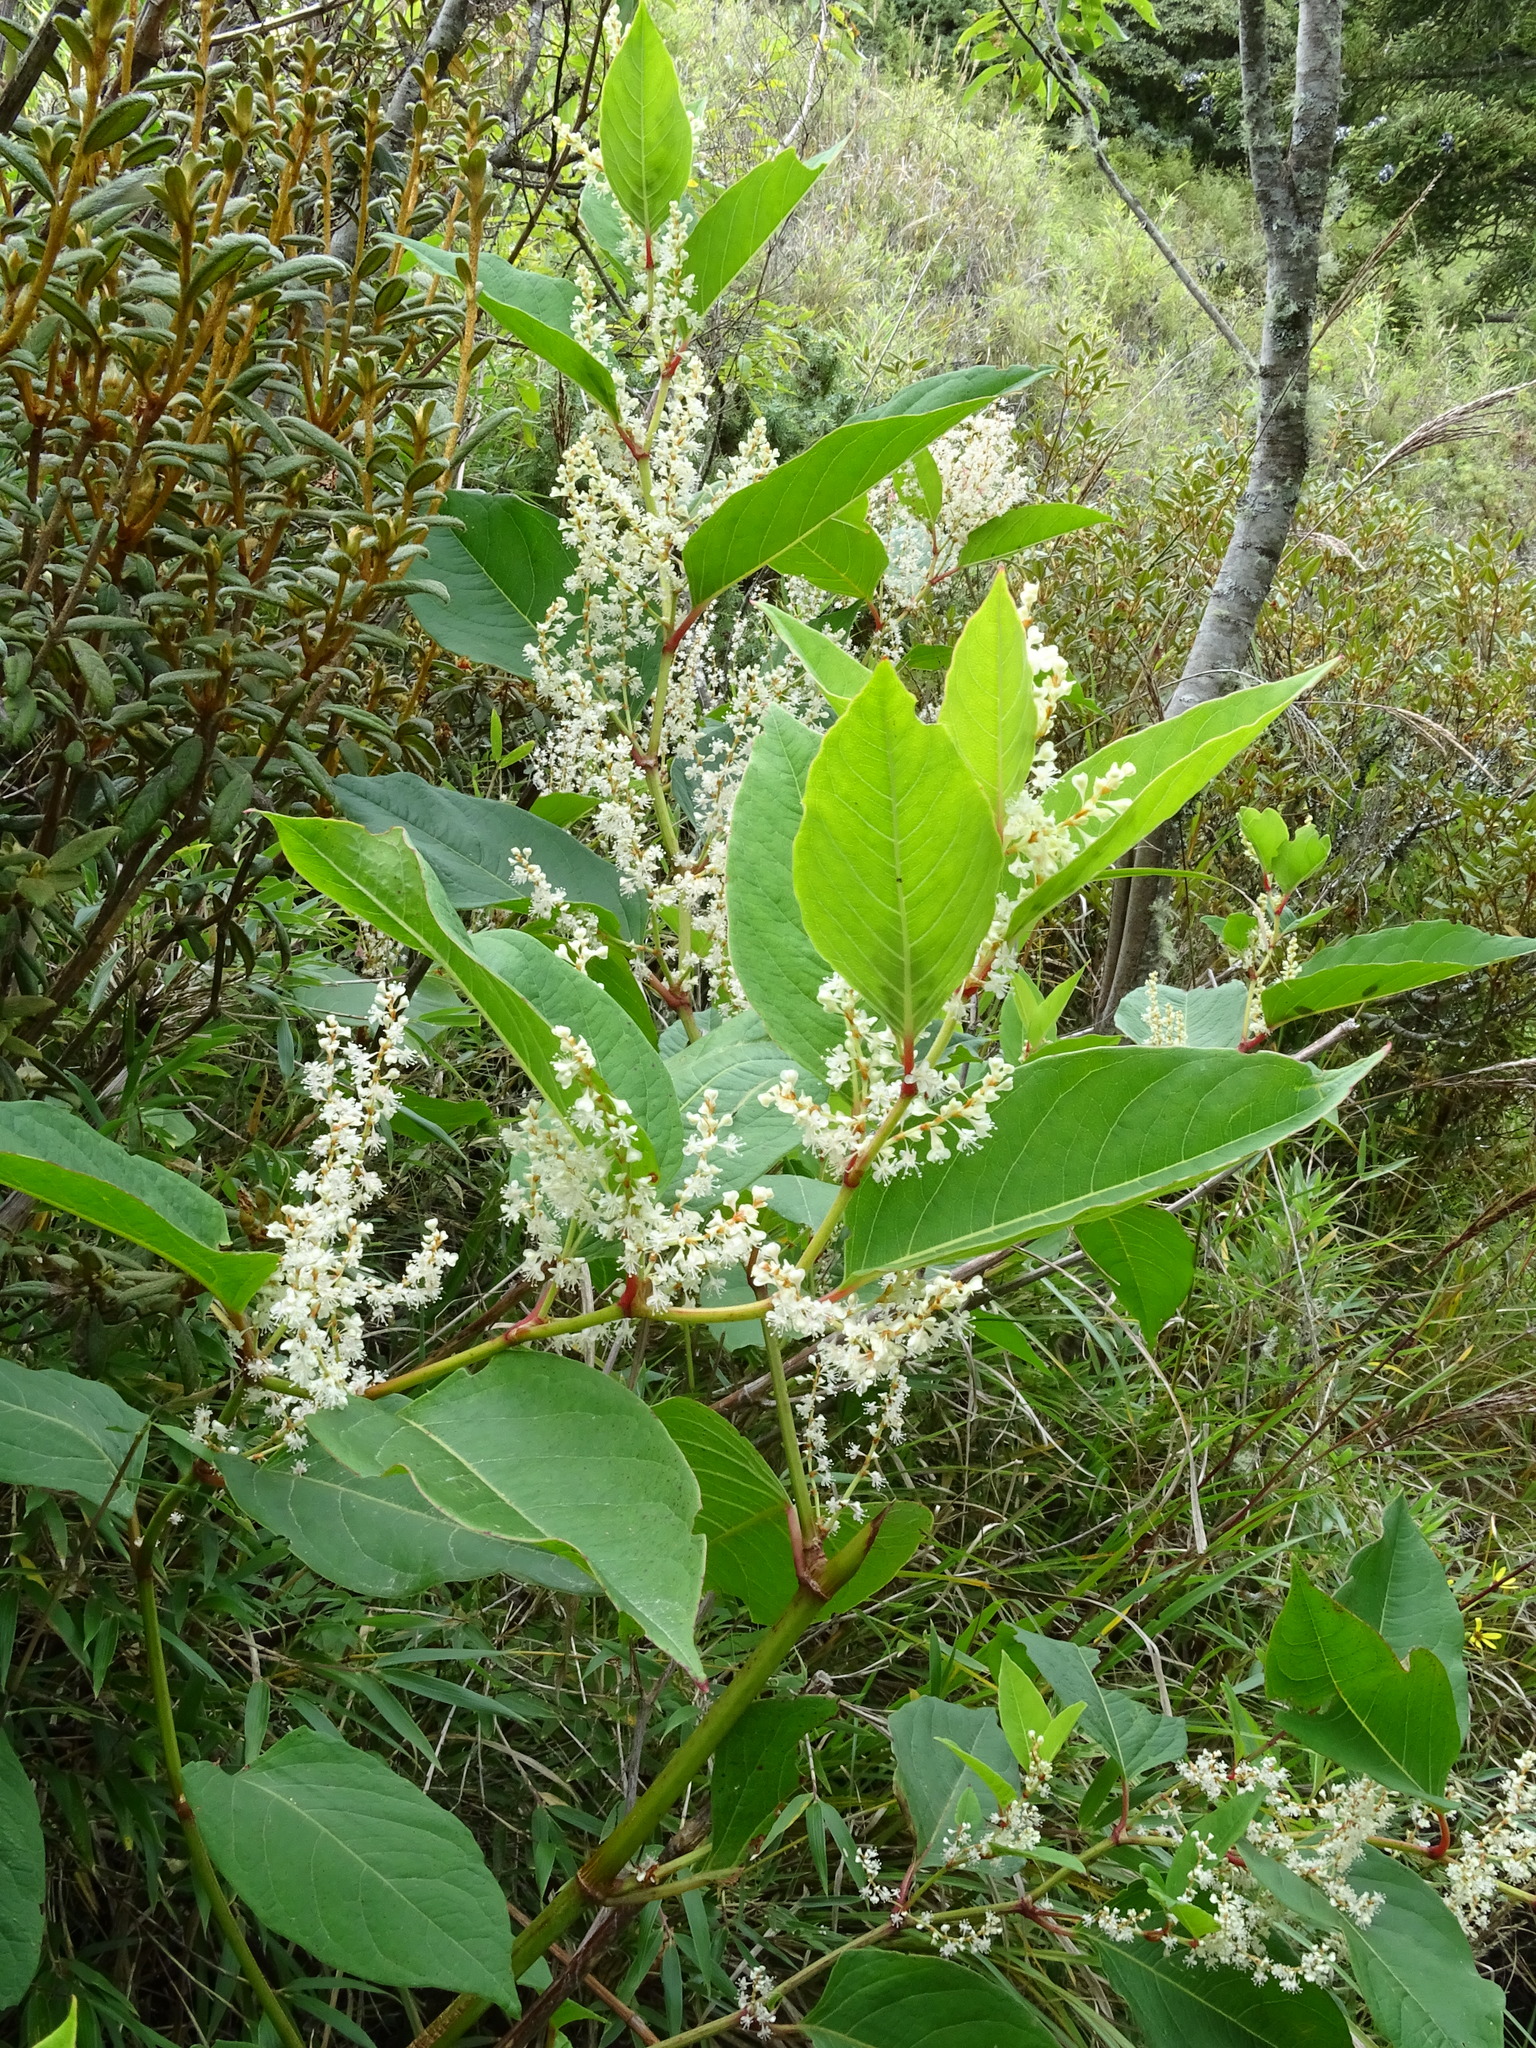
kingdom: Plantae
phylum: Tracheophyta
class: Magnoliopsida
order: Caryophyllales
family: Polygonaceae
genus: Reynoutria
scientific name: Reynoutria japonica
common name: Japanese knotweed
